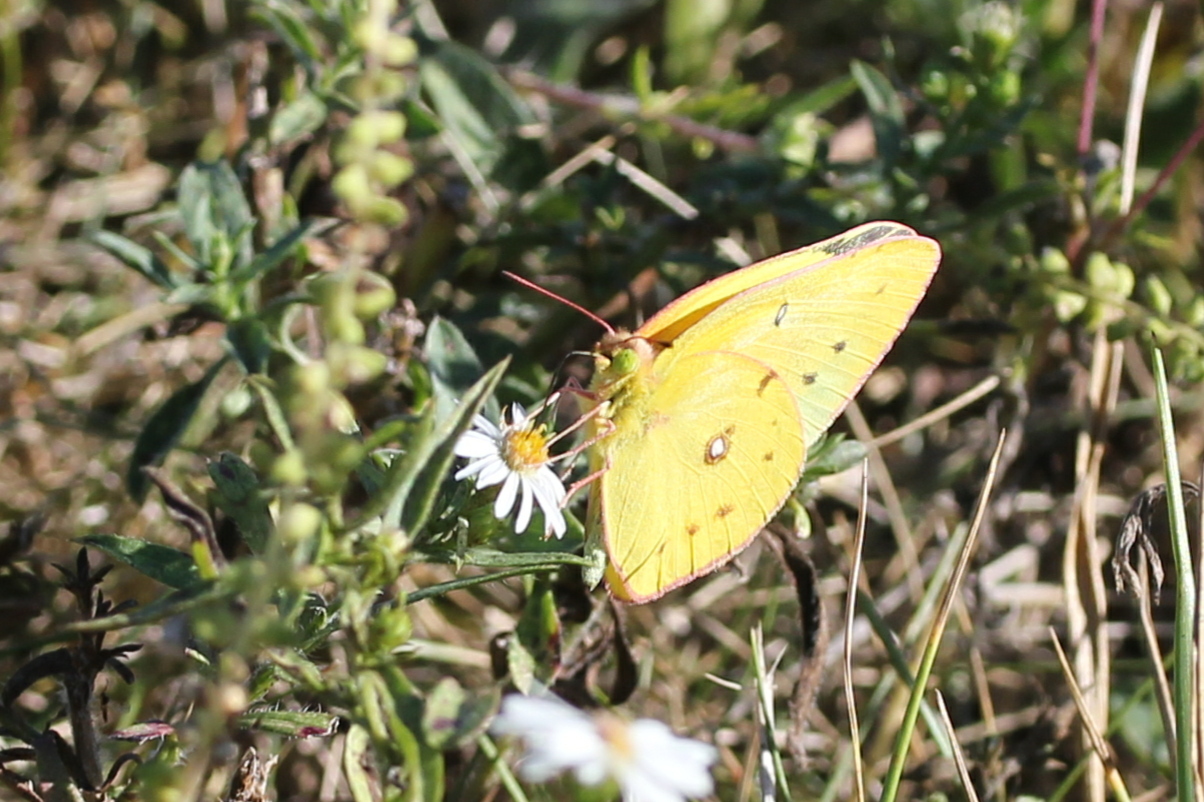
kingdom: Animalia
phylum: Arthropoda
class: Insecta
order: Lepidoptera
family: Pieridae
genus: Colias
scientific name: Colias eurytheme
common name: Alfalfa butterfly
